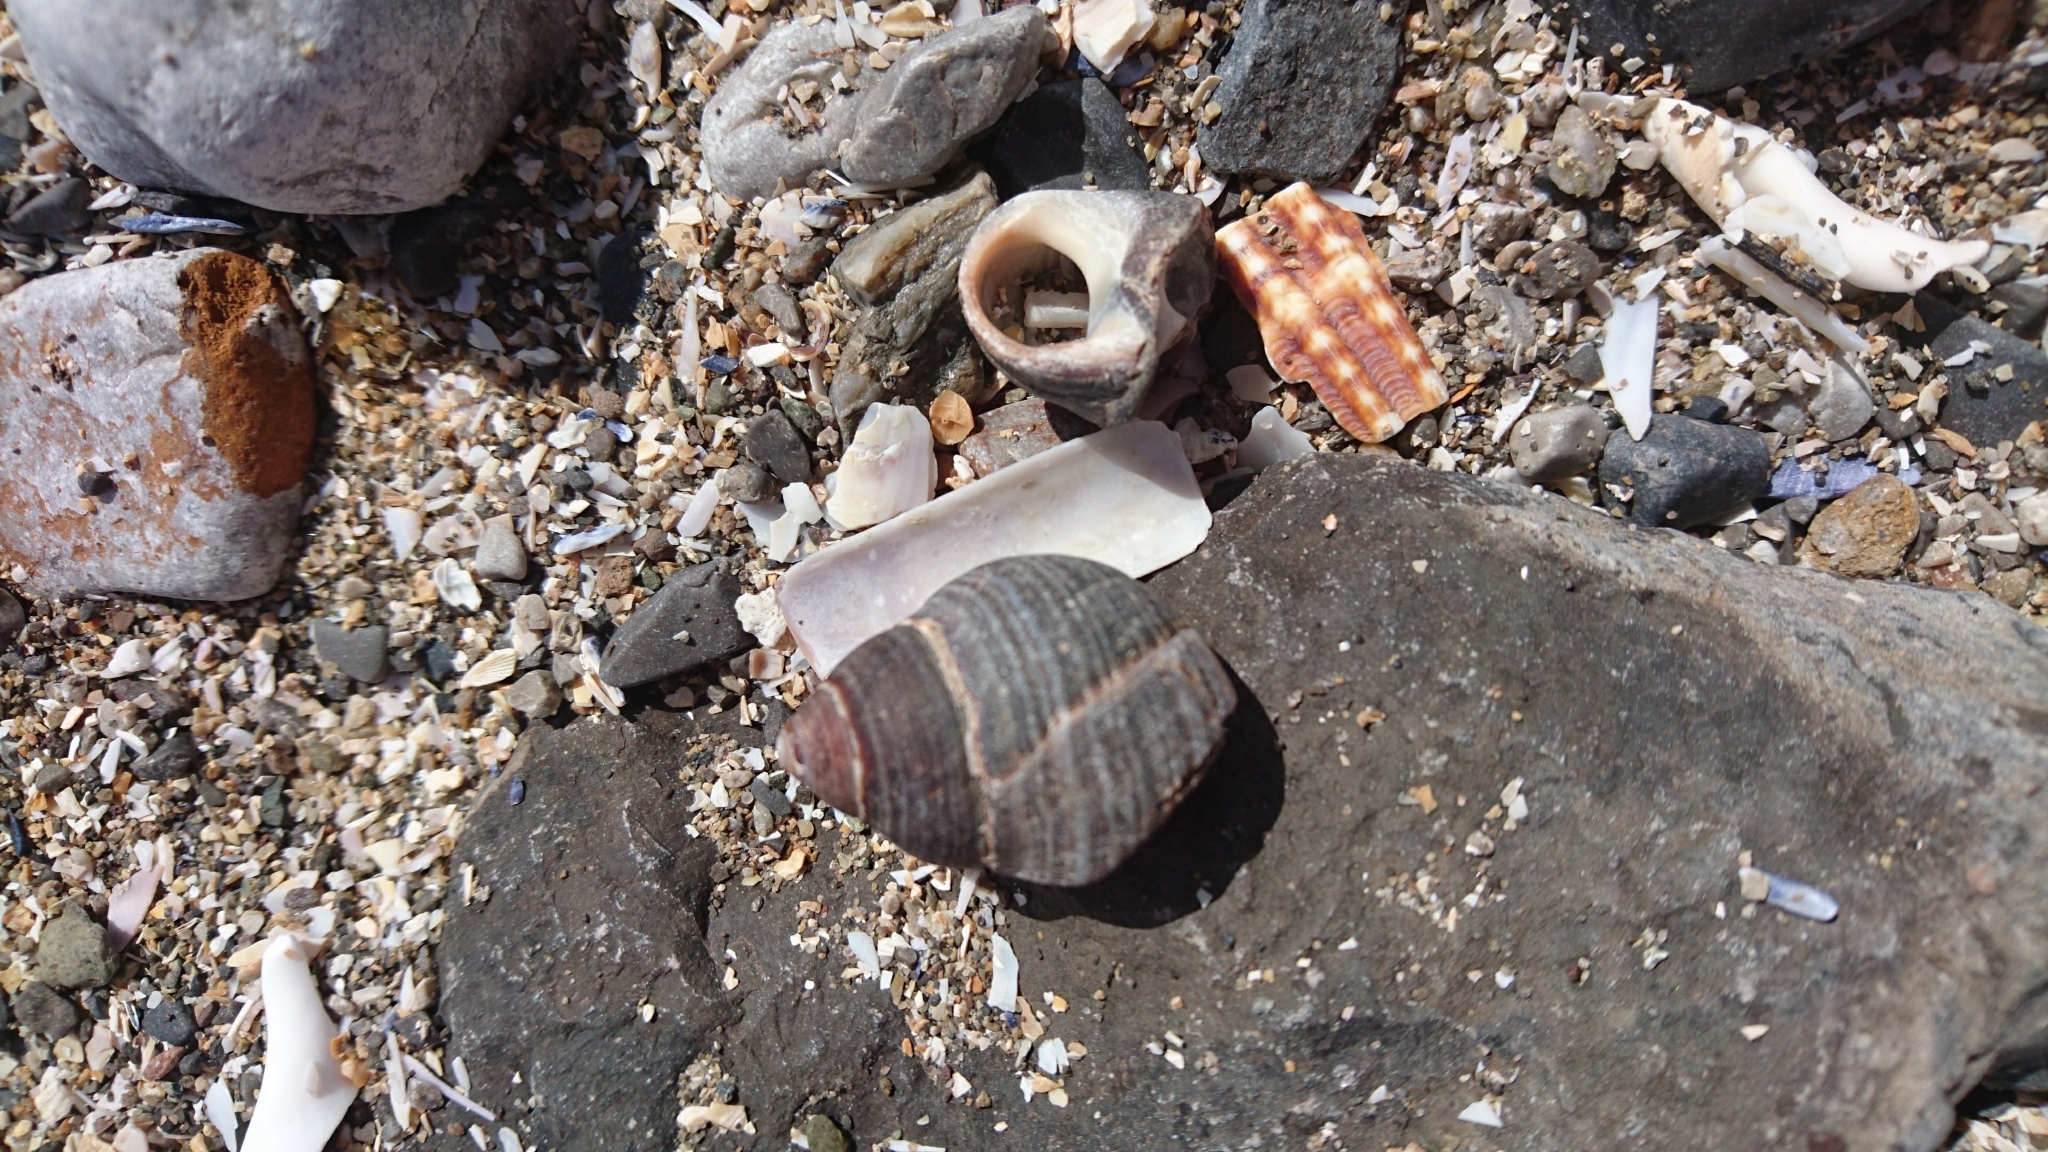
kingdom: Animalia
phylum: Mollusca
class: Gastropoda
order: Littorinimorpha
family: Littorinidae
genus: Littorina
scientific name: Littorina littorea
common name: Common periwinkle
